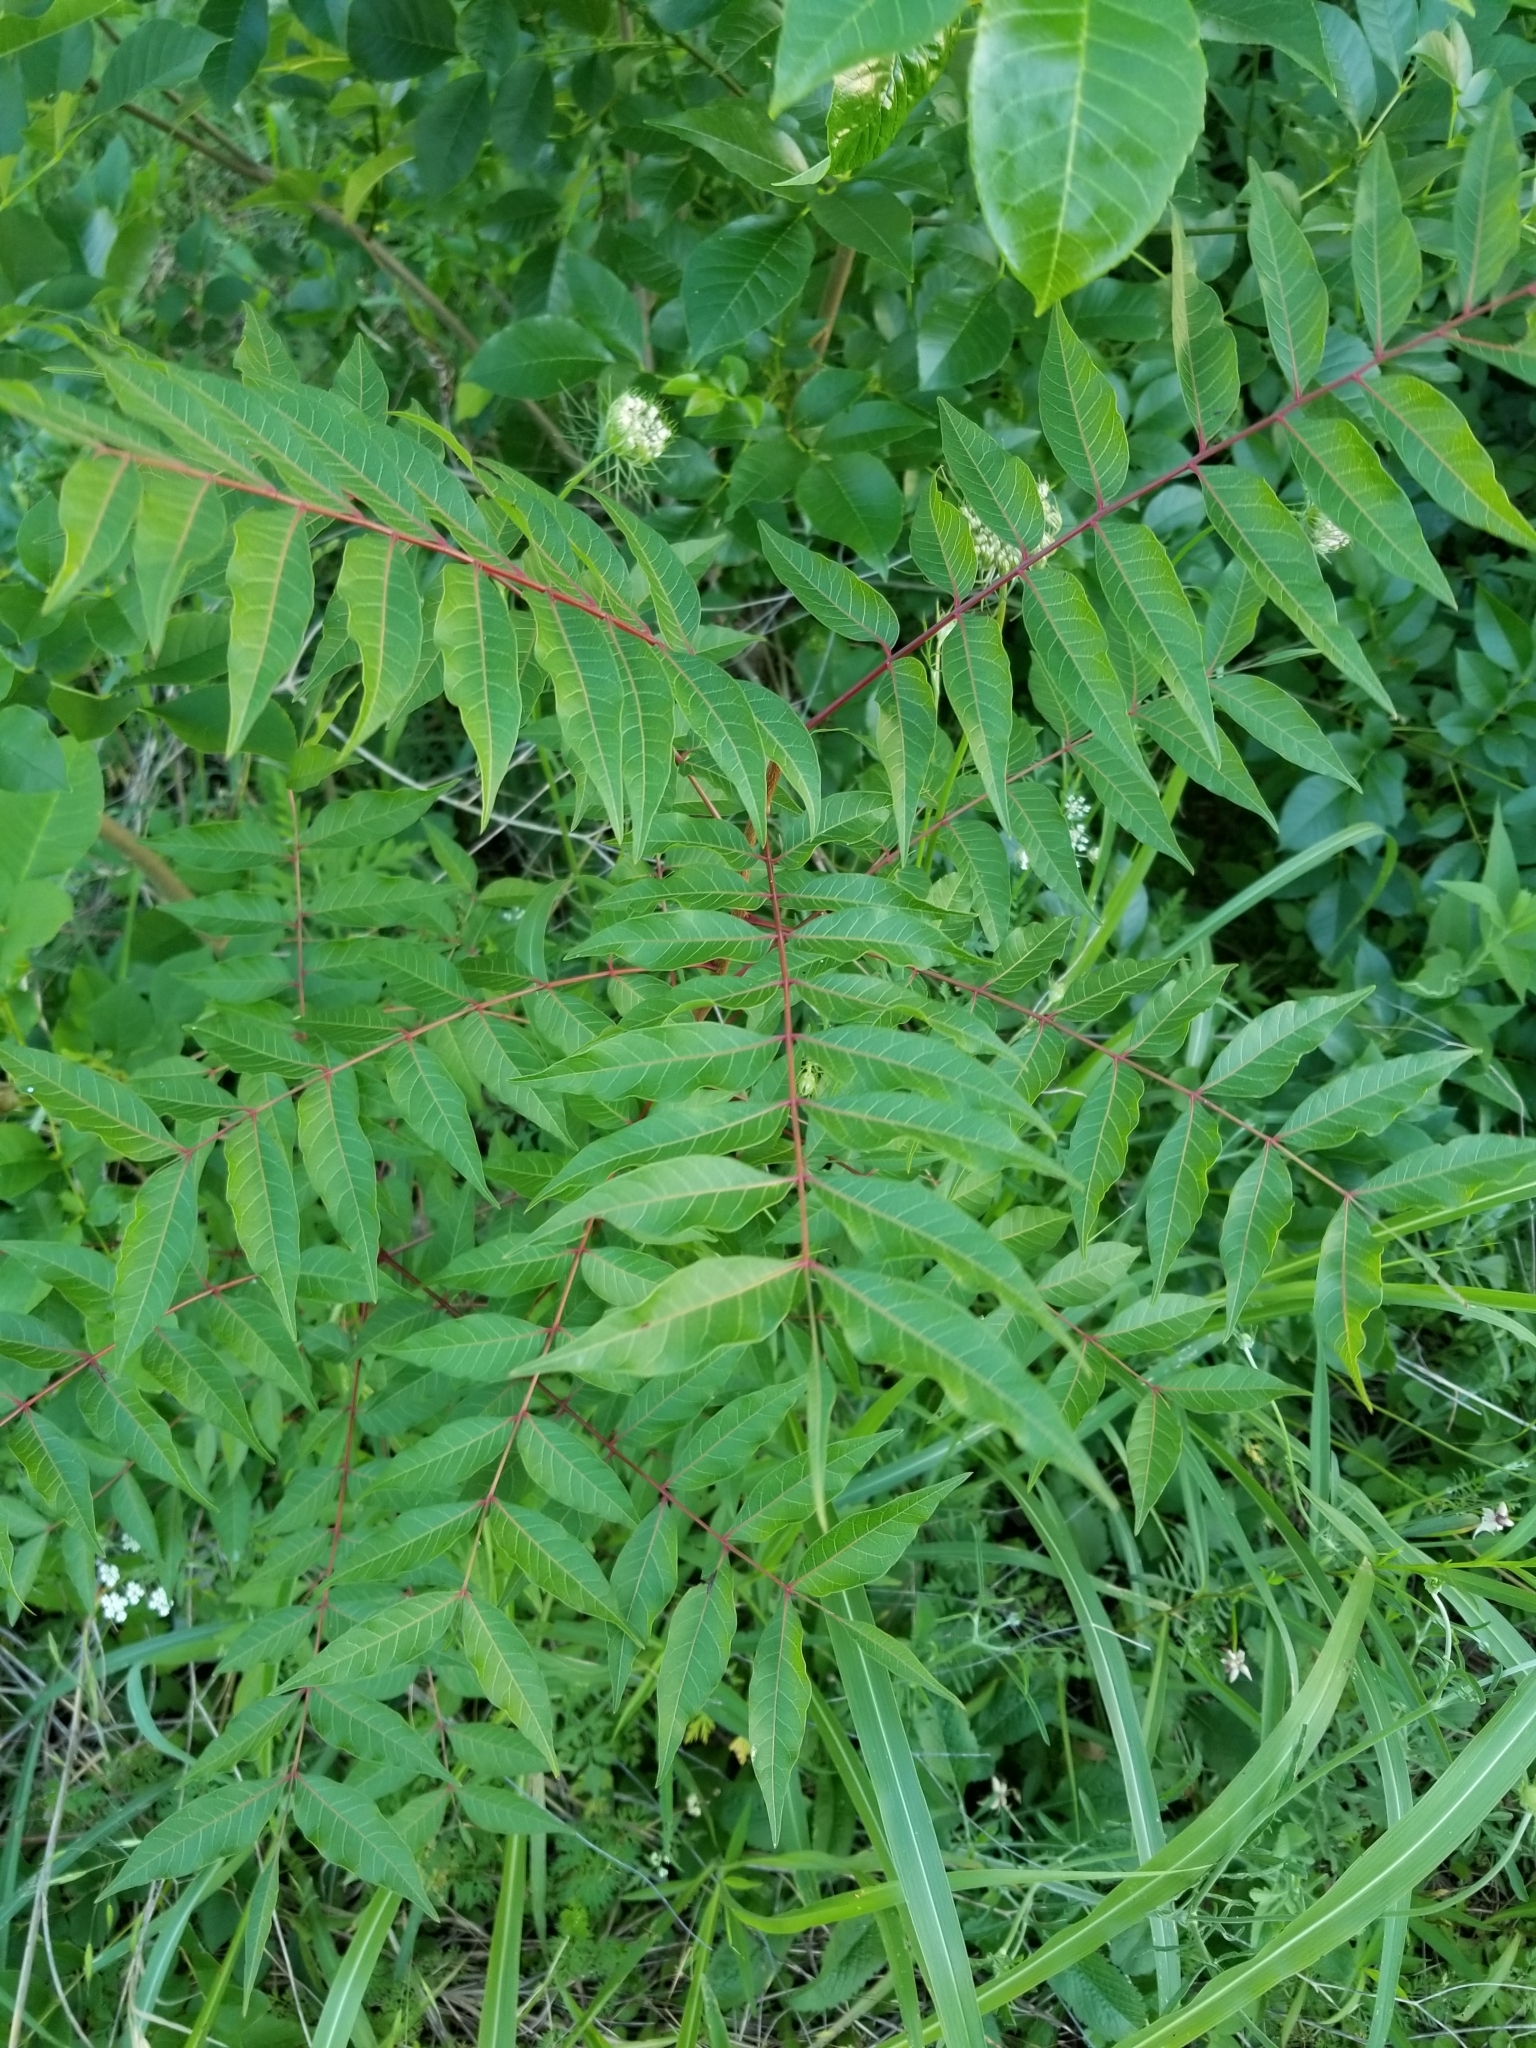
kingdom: Plantae
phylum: Tracheophyta
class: Magnoliopsida
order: Sapindales
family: Anacardiaceae
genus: Pistacia
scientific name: Pistacia chinensis
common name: Chinese pistache
